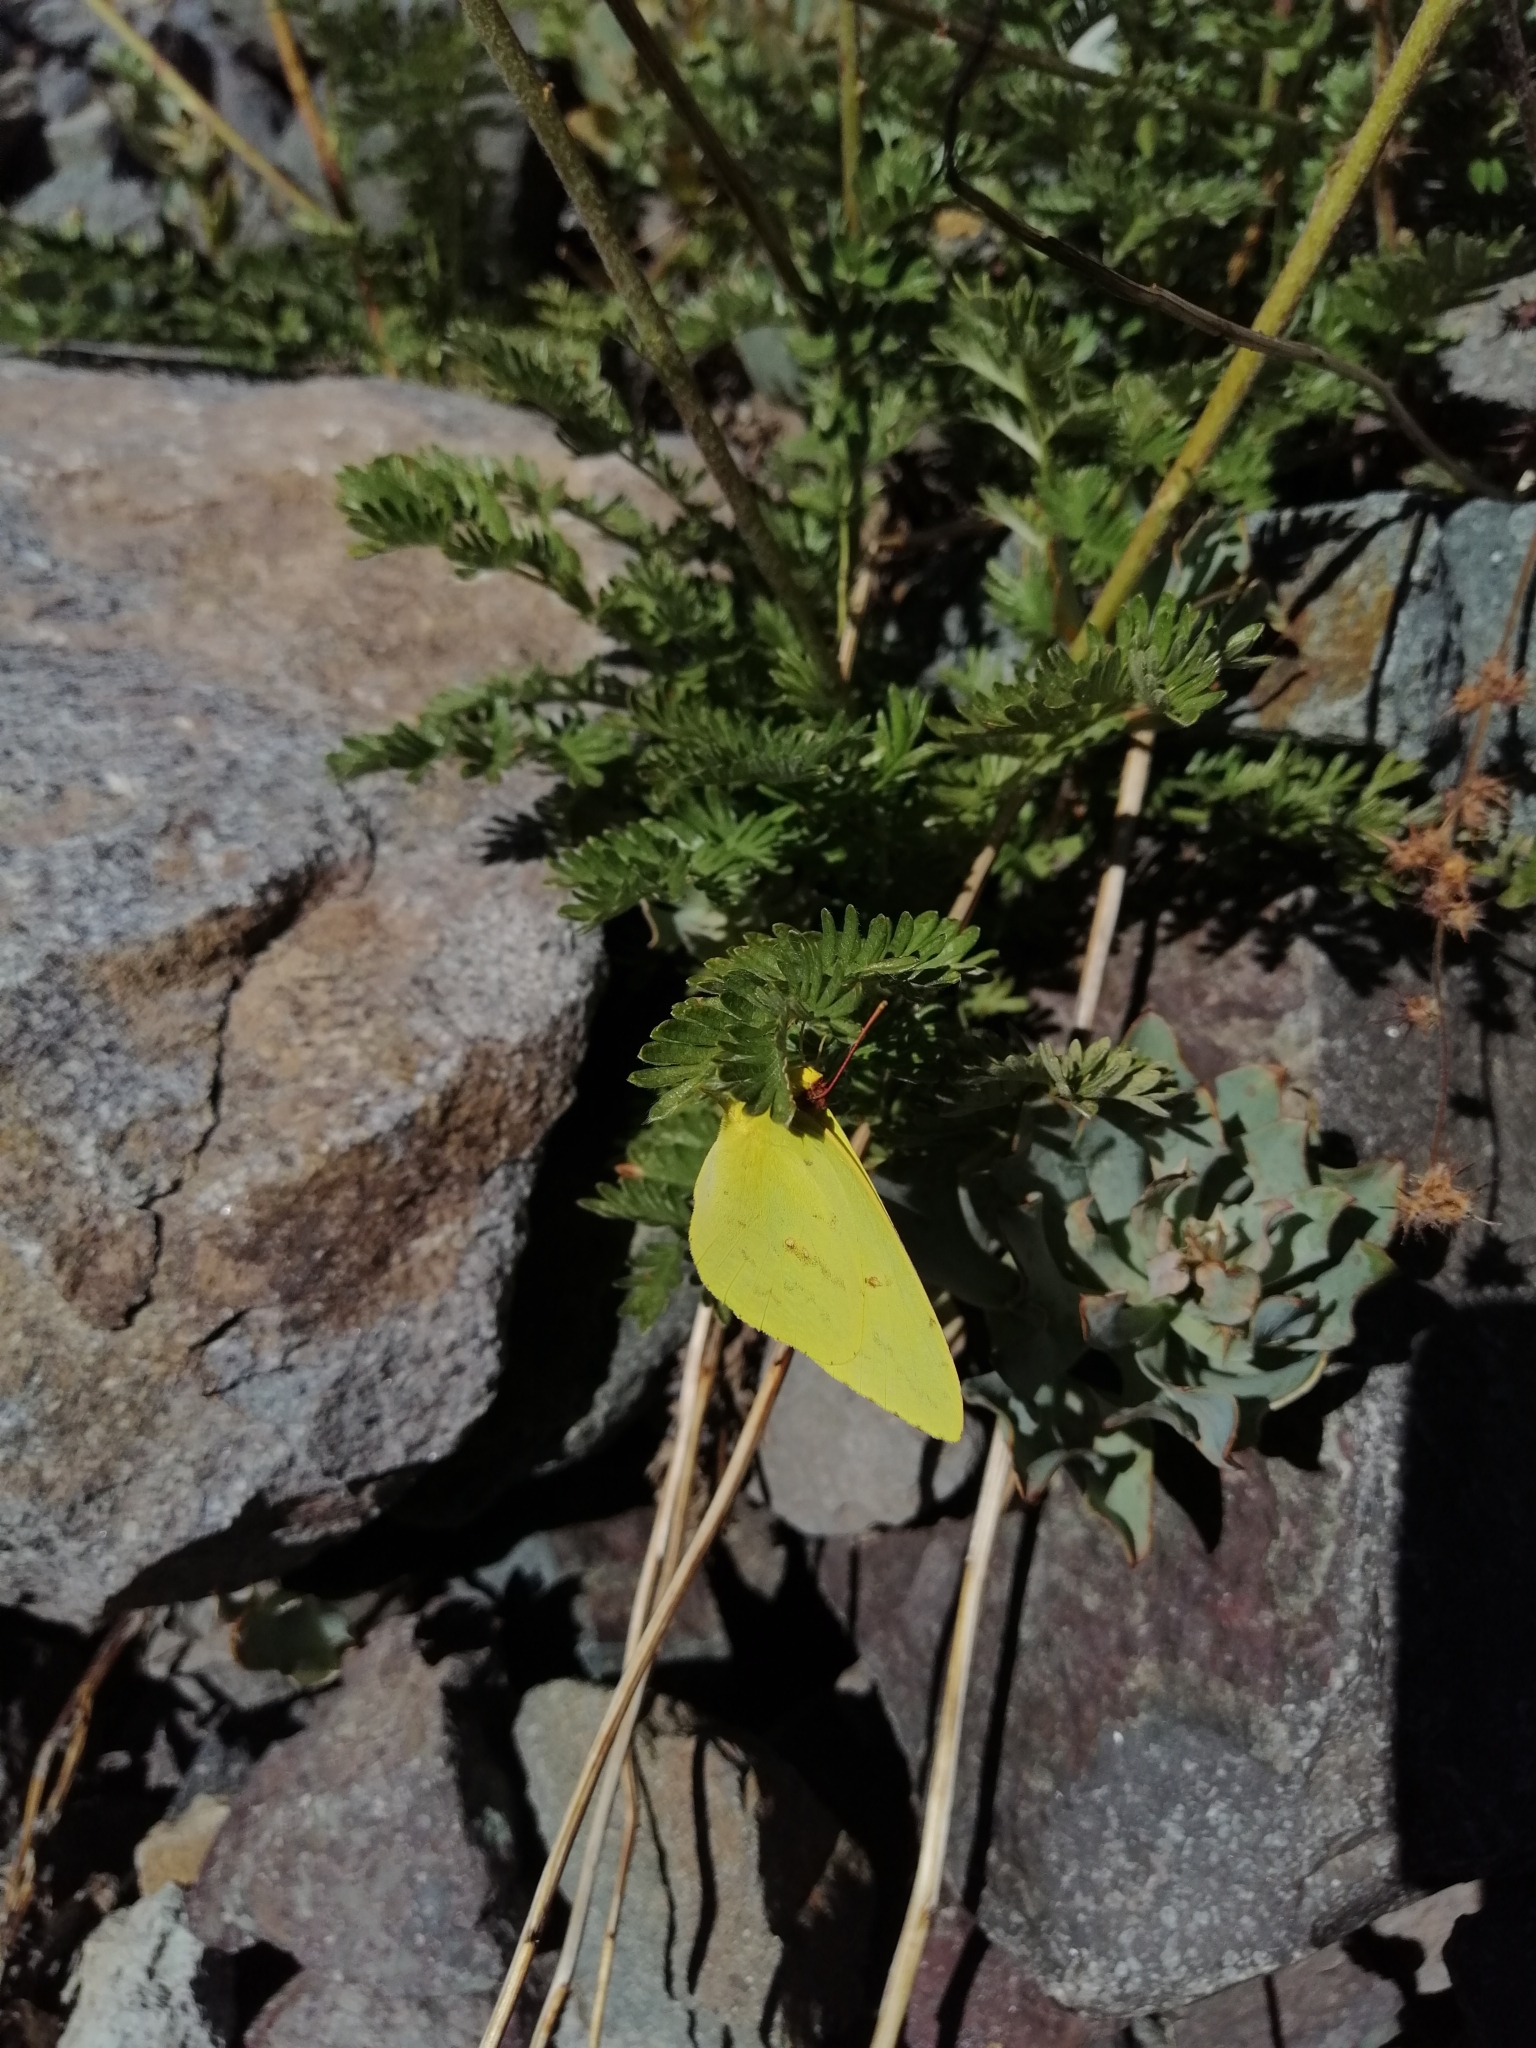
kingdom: Animalia
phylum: Arthropoda
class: Insecta
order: Lepidoptera
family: Pieridae
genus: Phoebis
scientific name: Phoebis sennae
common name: Cloudless sulphur
